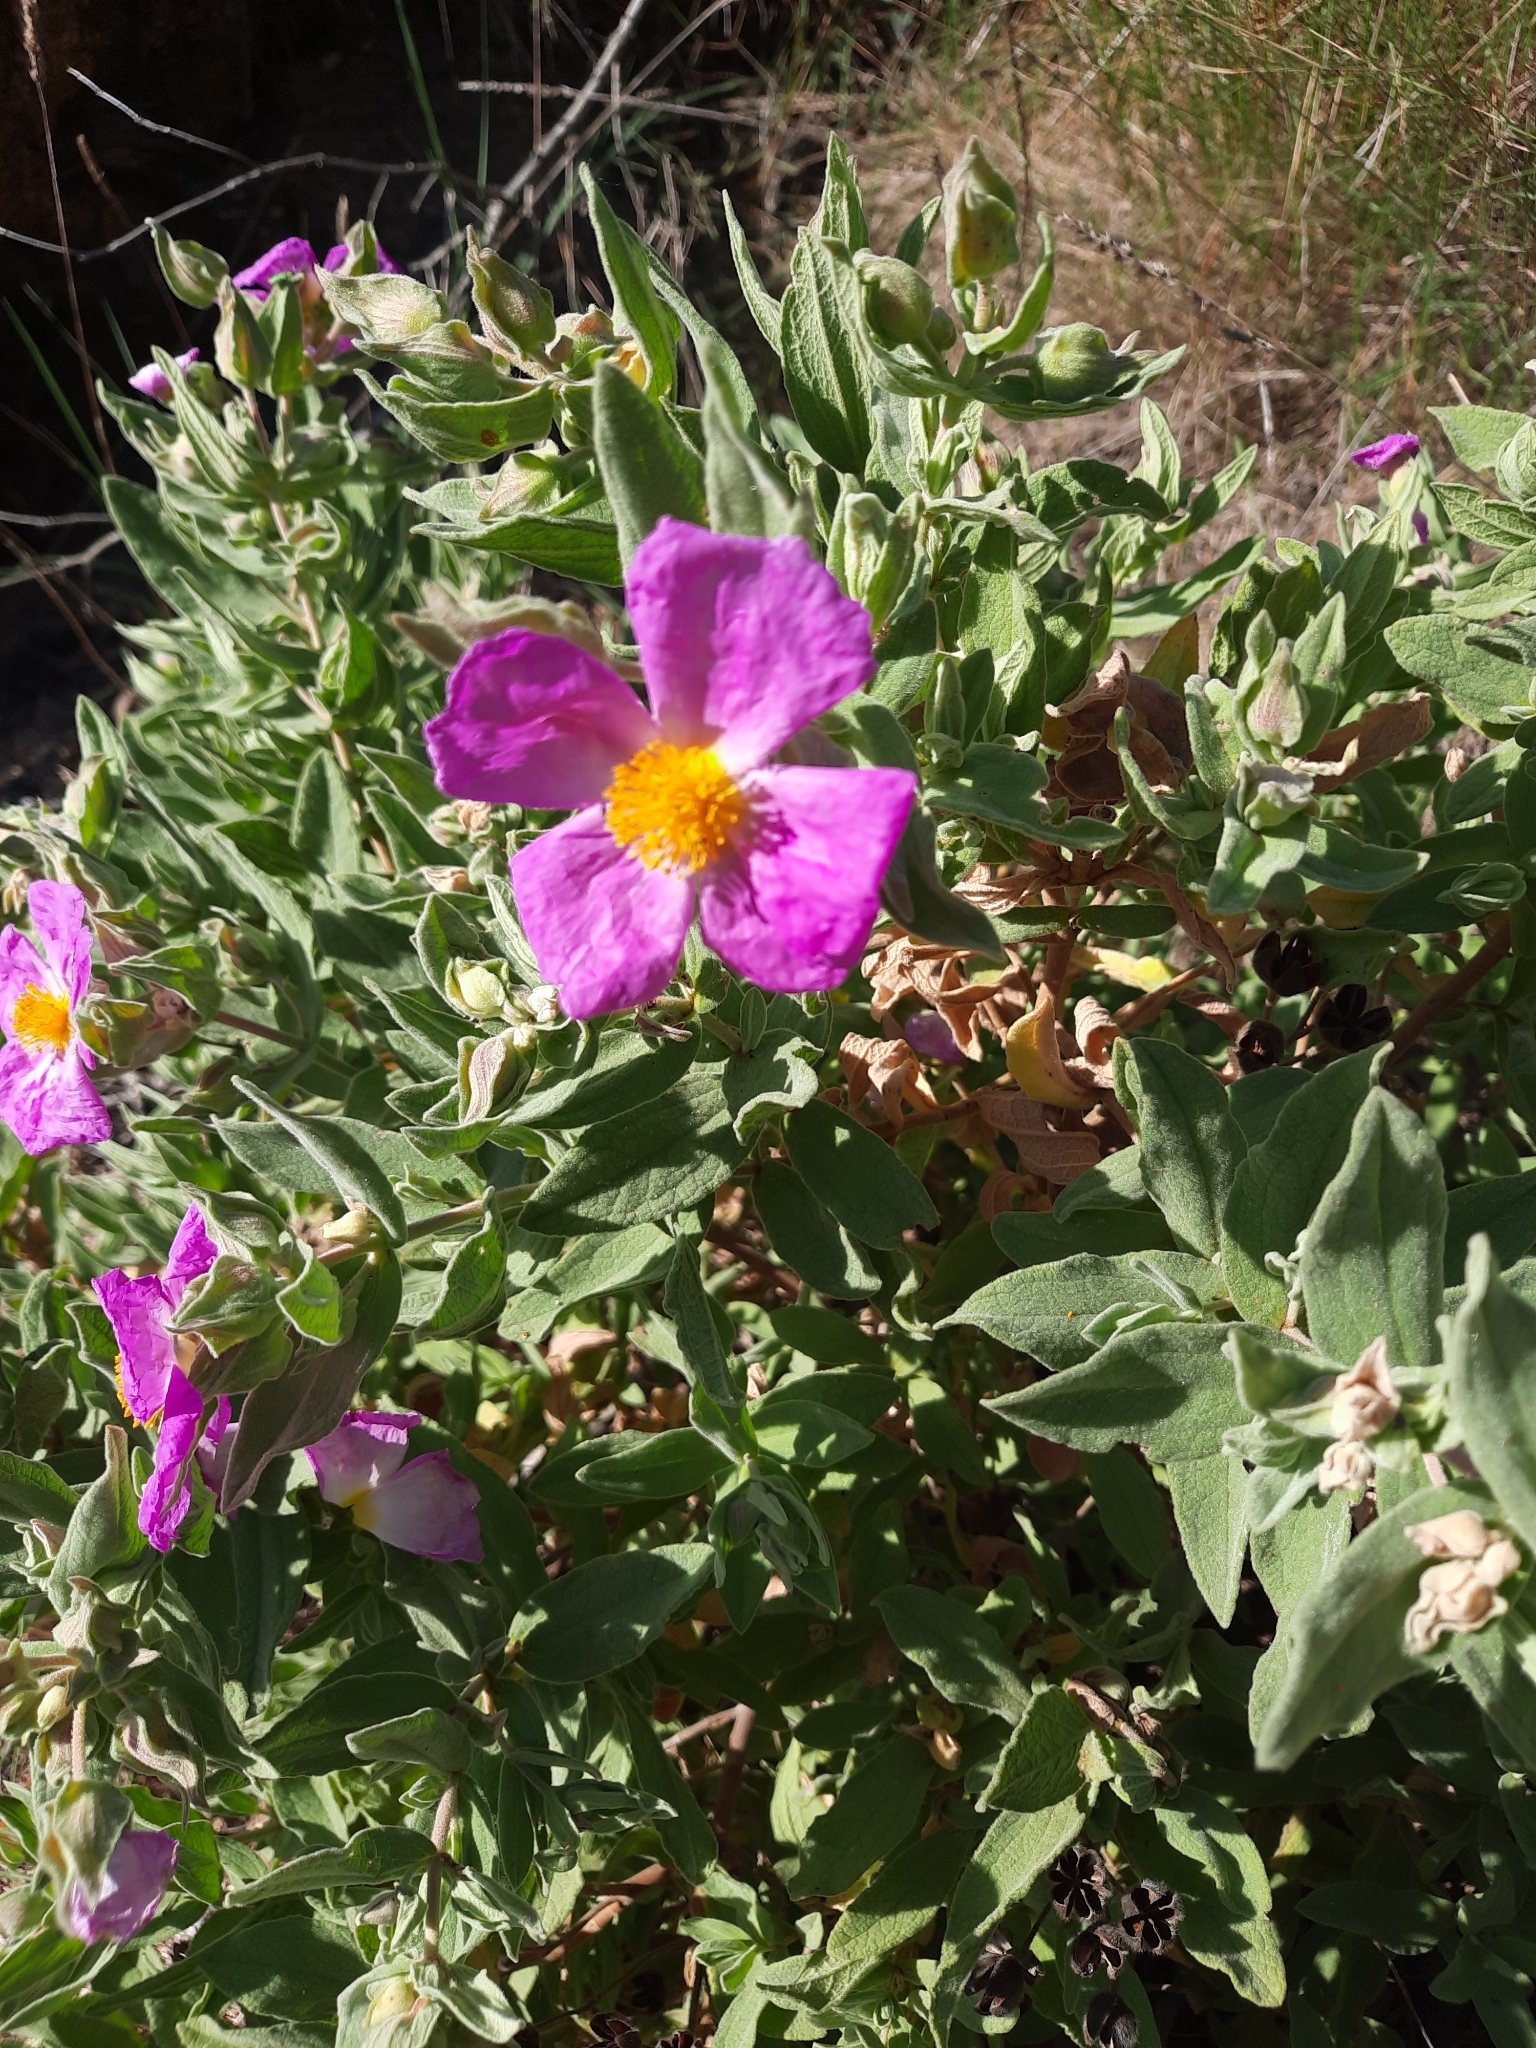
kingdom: Plantae
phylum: Tracheophyta
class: Magnoliopsida
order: Malvales
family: Cistaceae
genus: Cistus
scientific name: Cistus albidus
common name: White-leaf rock-rose
